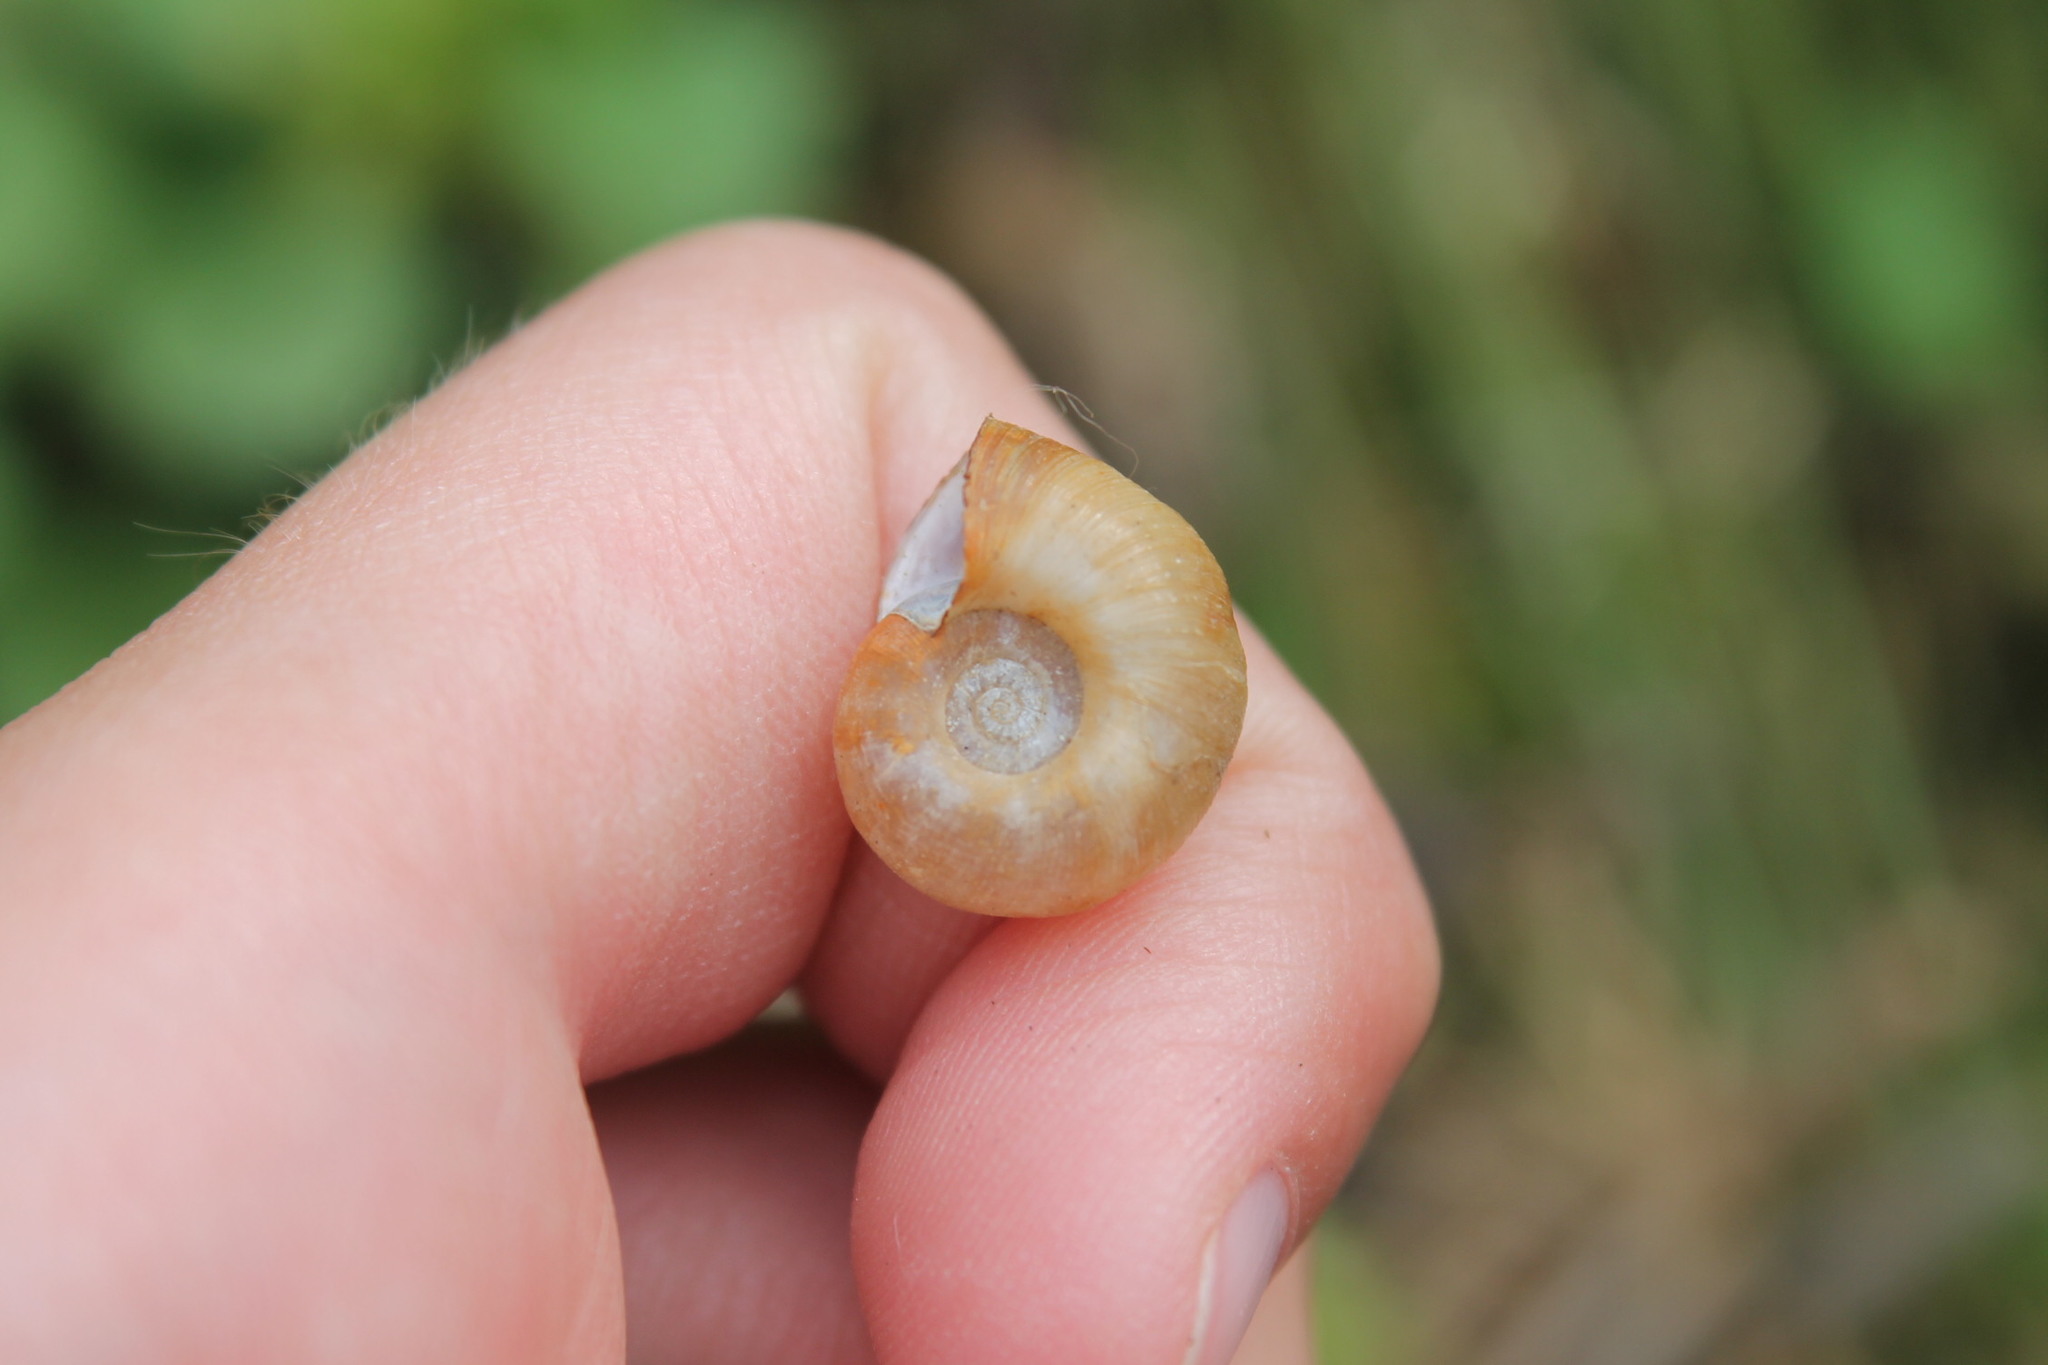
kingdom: Animalia
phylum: Mollusca
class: Gastropoda
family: Planorbidae
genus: Planorbella
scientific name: Planorbella trivolvis
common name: Marsh rams-horn
